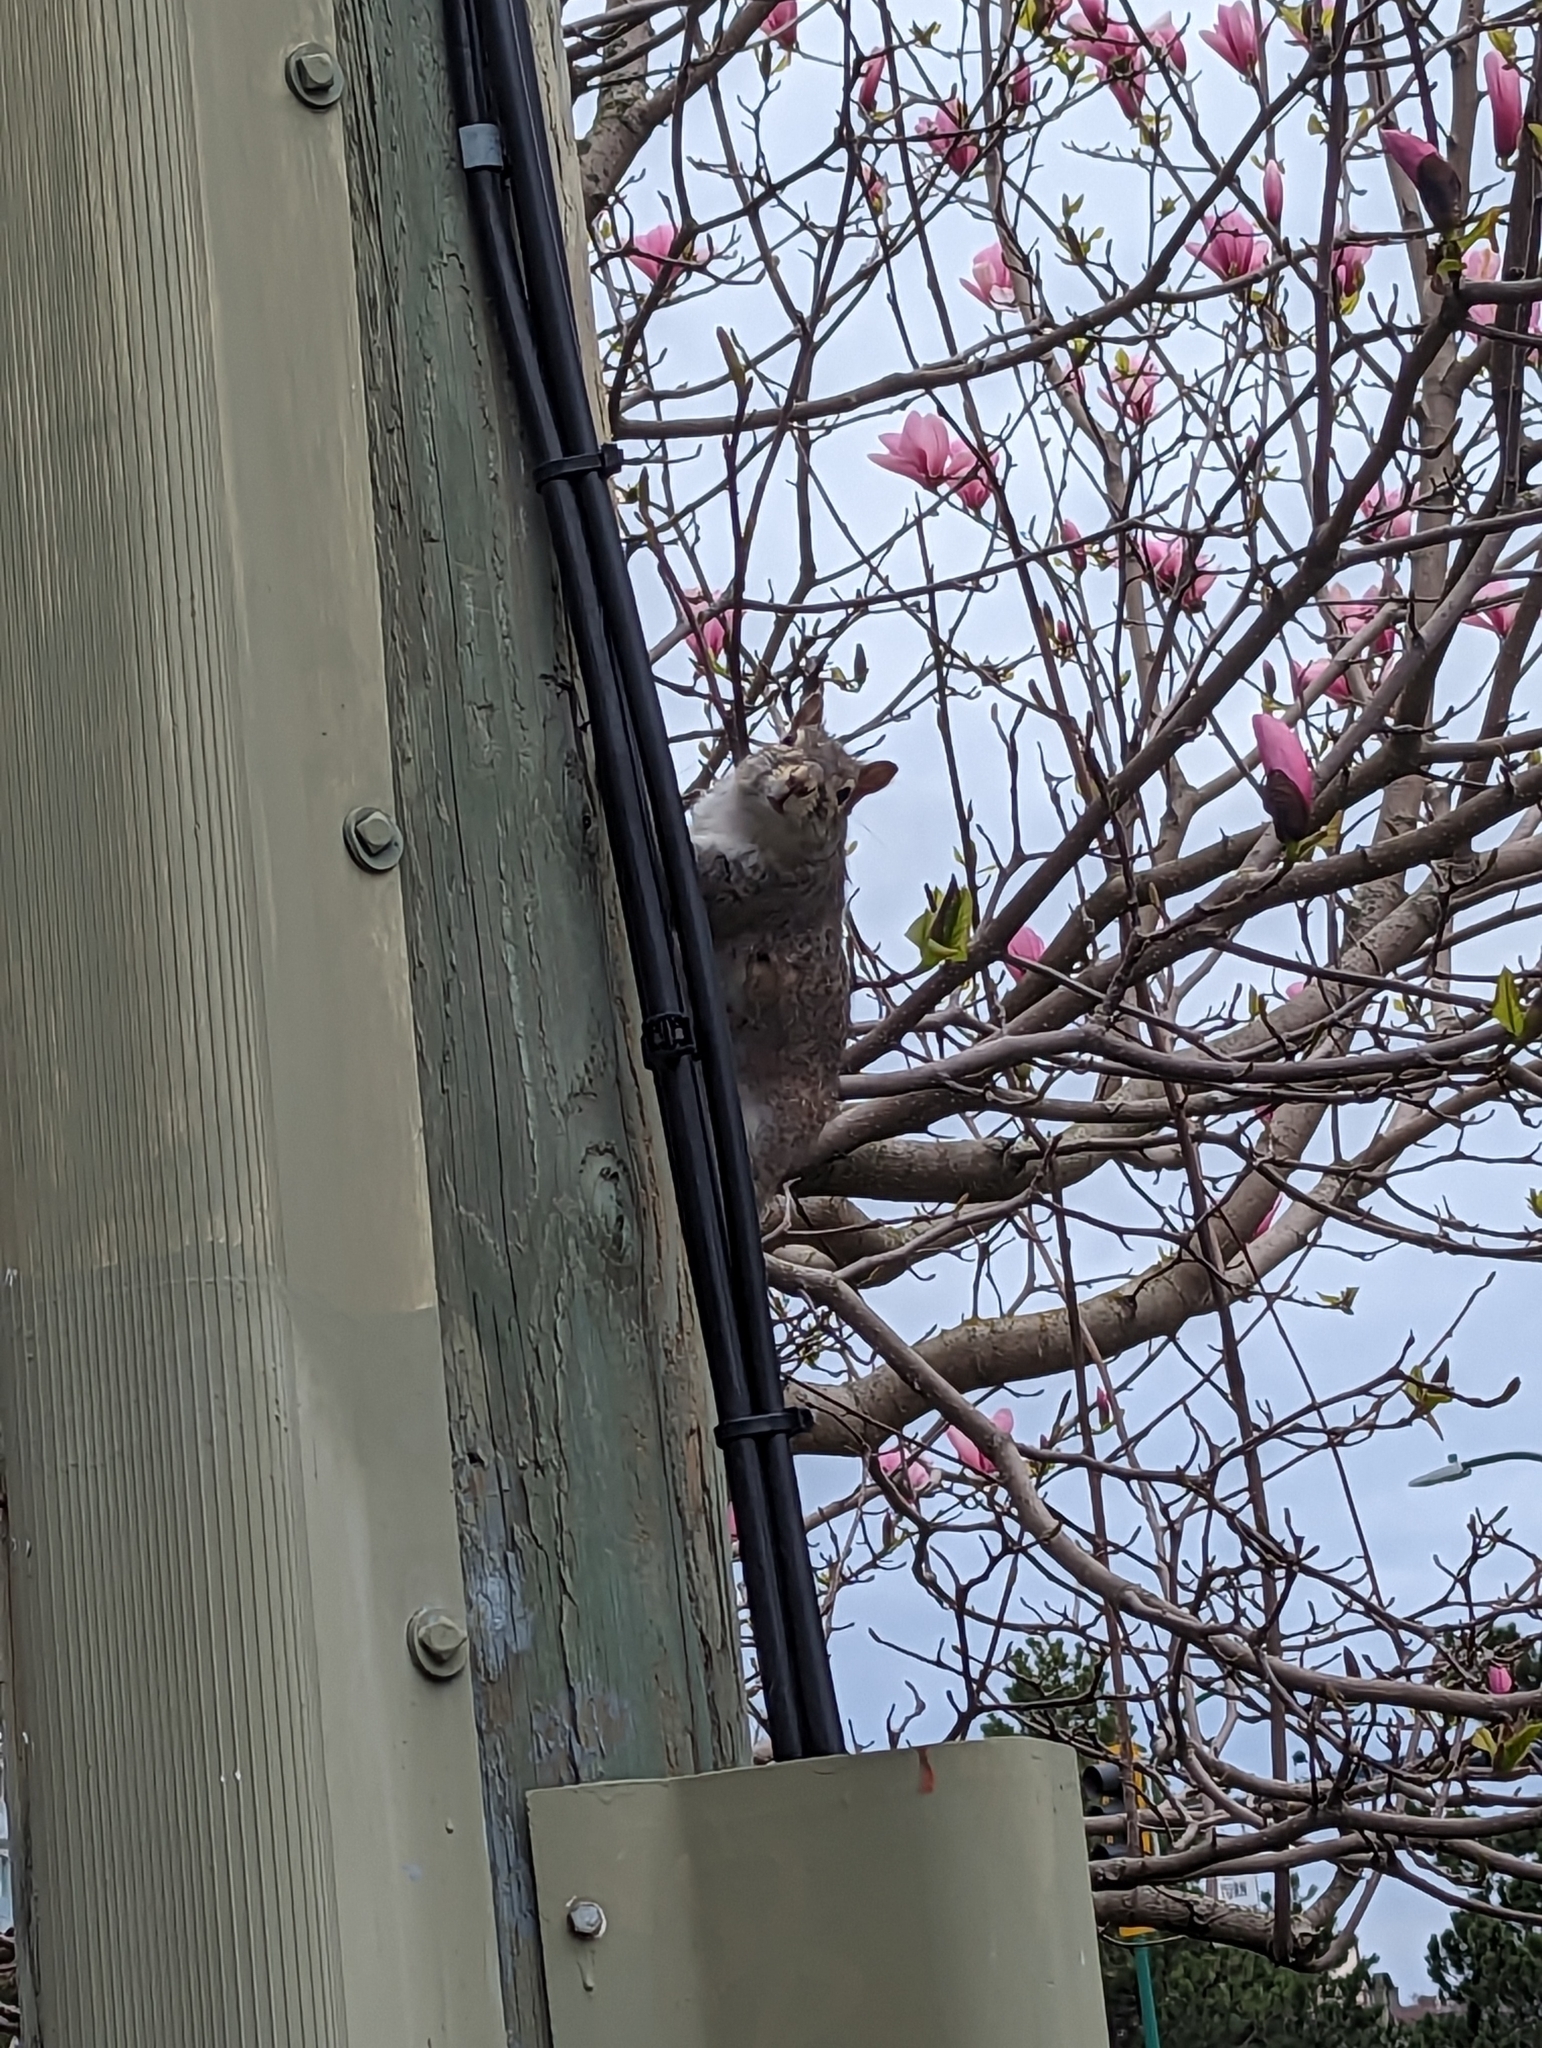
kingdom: Animalia
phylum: Chordata
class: Mammalia
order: Rodentia
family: Sciuridae
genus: Sciurus
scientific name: Sciurus carolinensis
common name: Eastern gray squirrel
